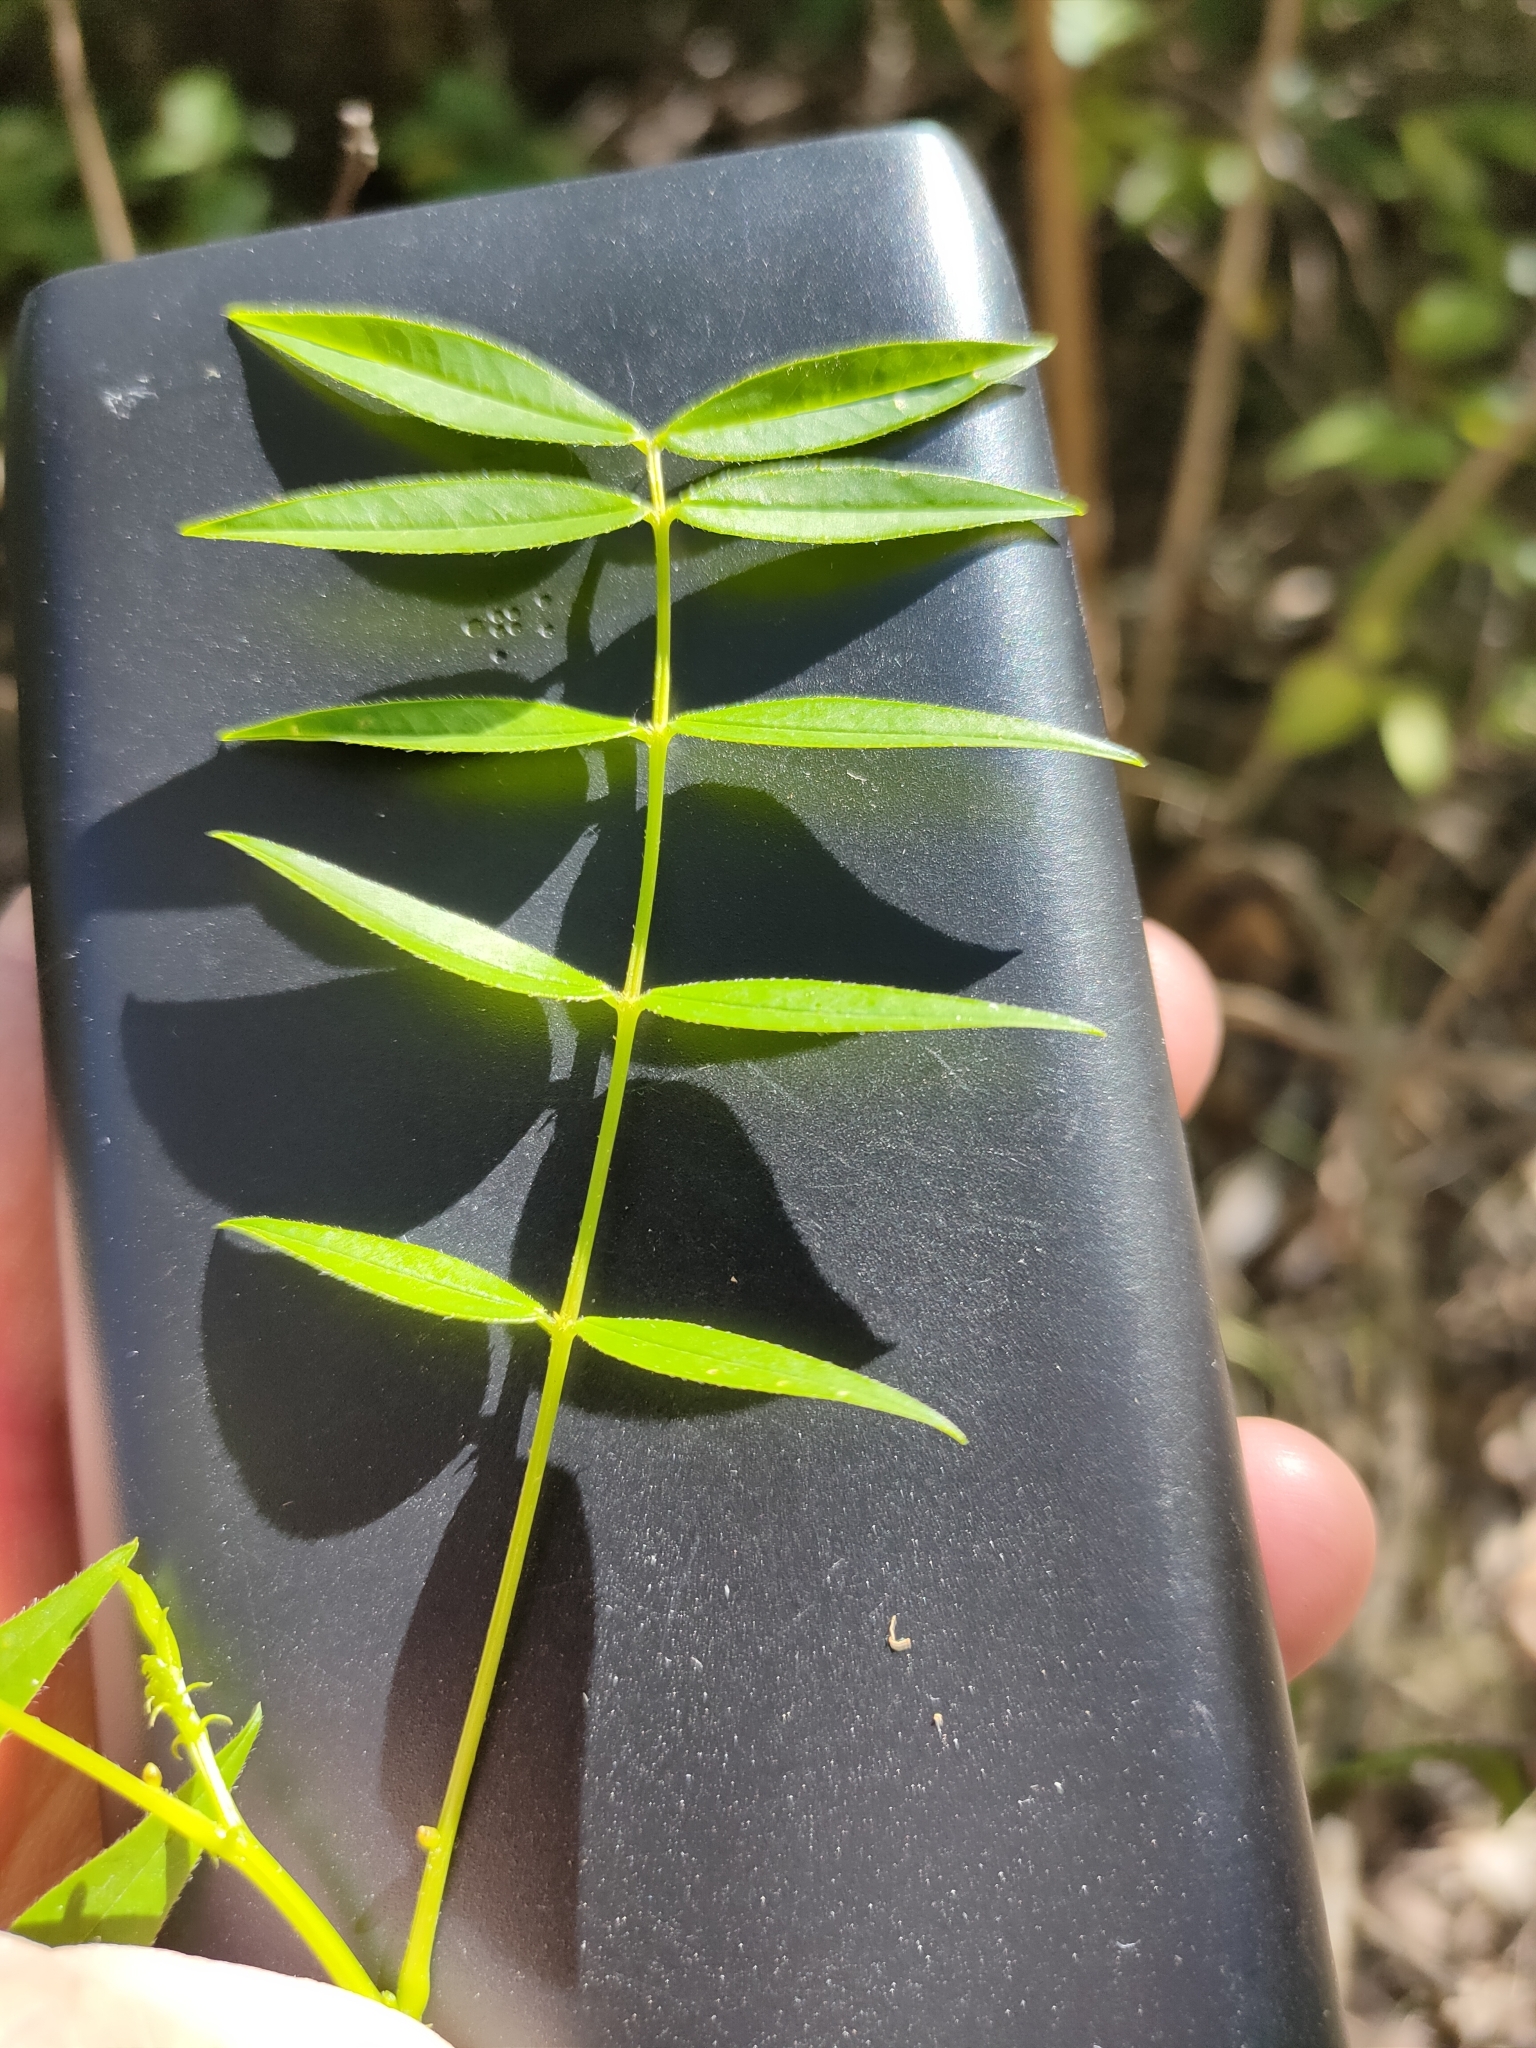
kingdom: Plantae
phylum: Tracheophyta
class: Magnoliopsida
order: Fabales
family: Fabaceae
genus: Senna
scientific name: Senna sophera
